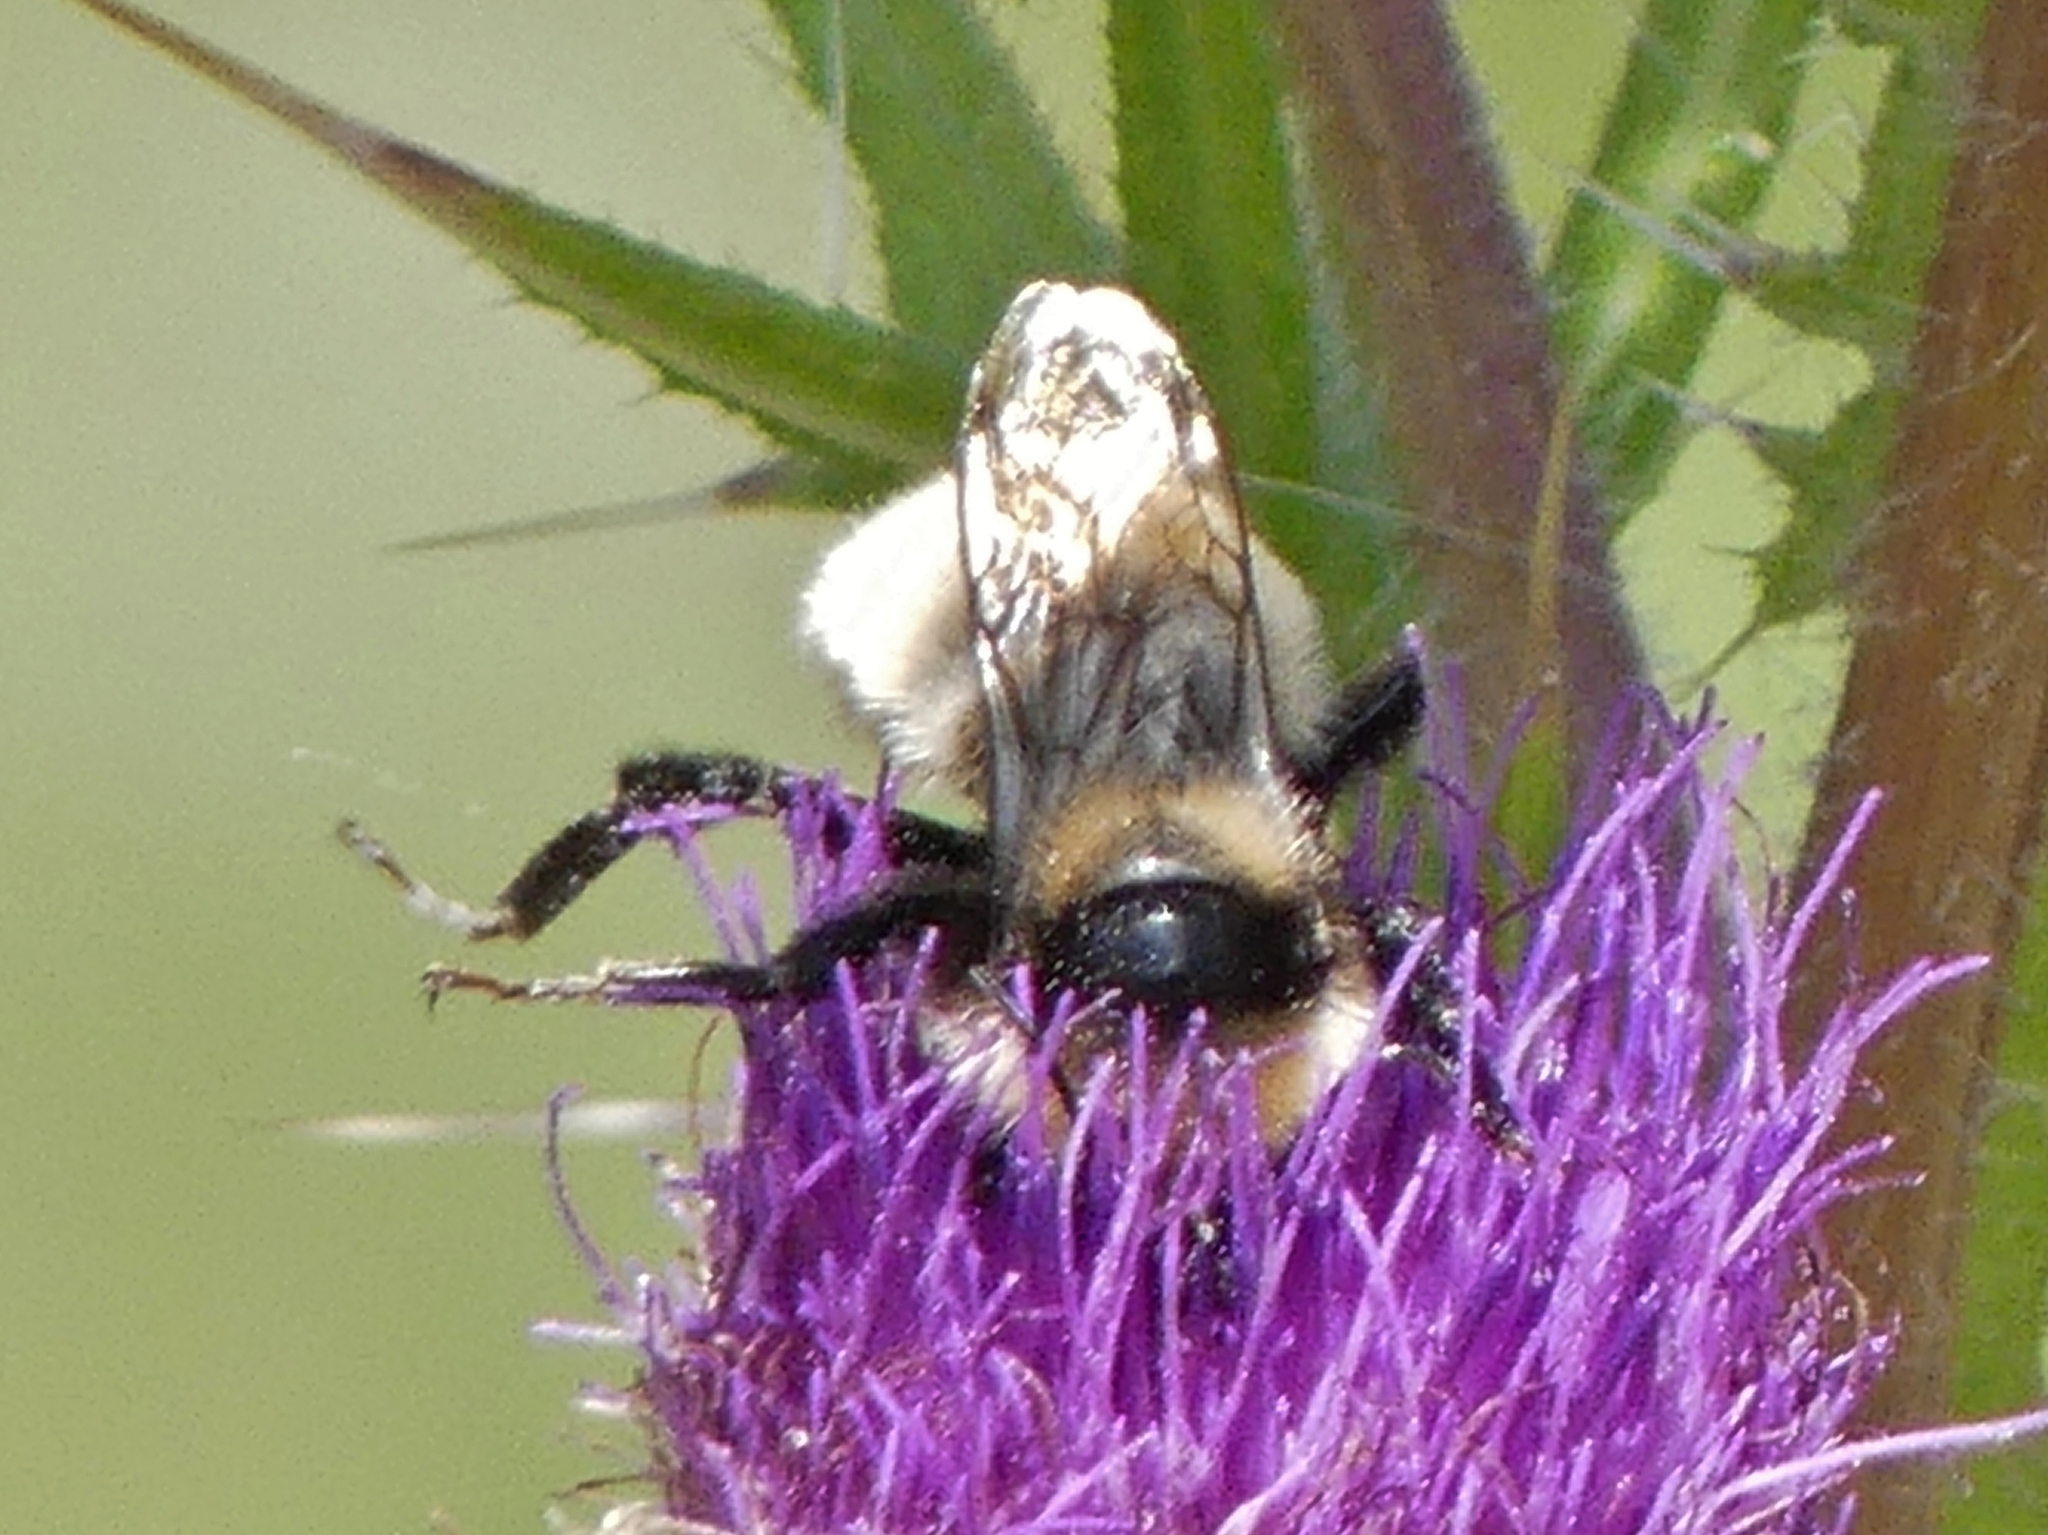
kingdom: Animalia
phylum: Arthropoda
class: Insecta
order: Hymenoptera
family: Apidae
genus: Bombus
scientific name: Bombus borealis
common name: Northern amber bumble bee
